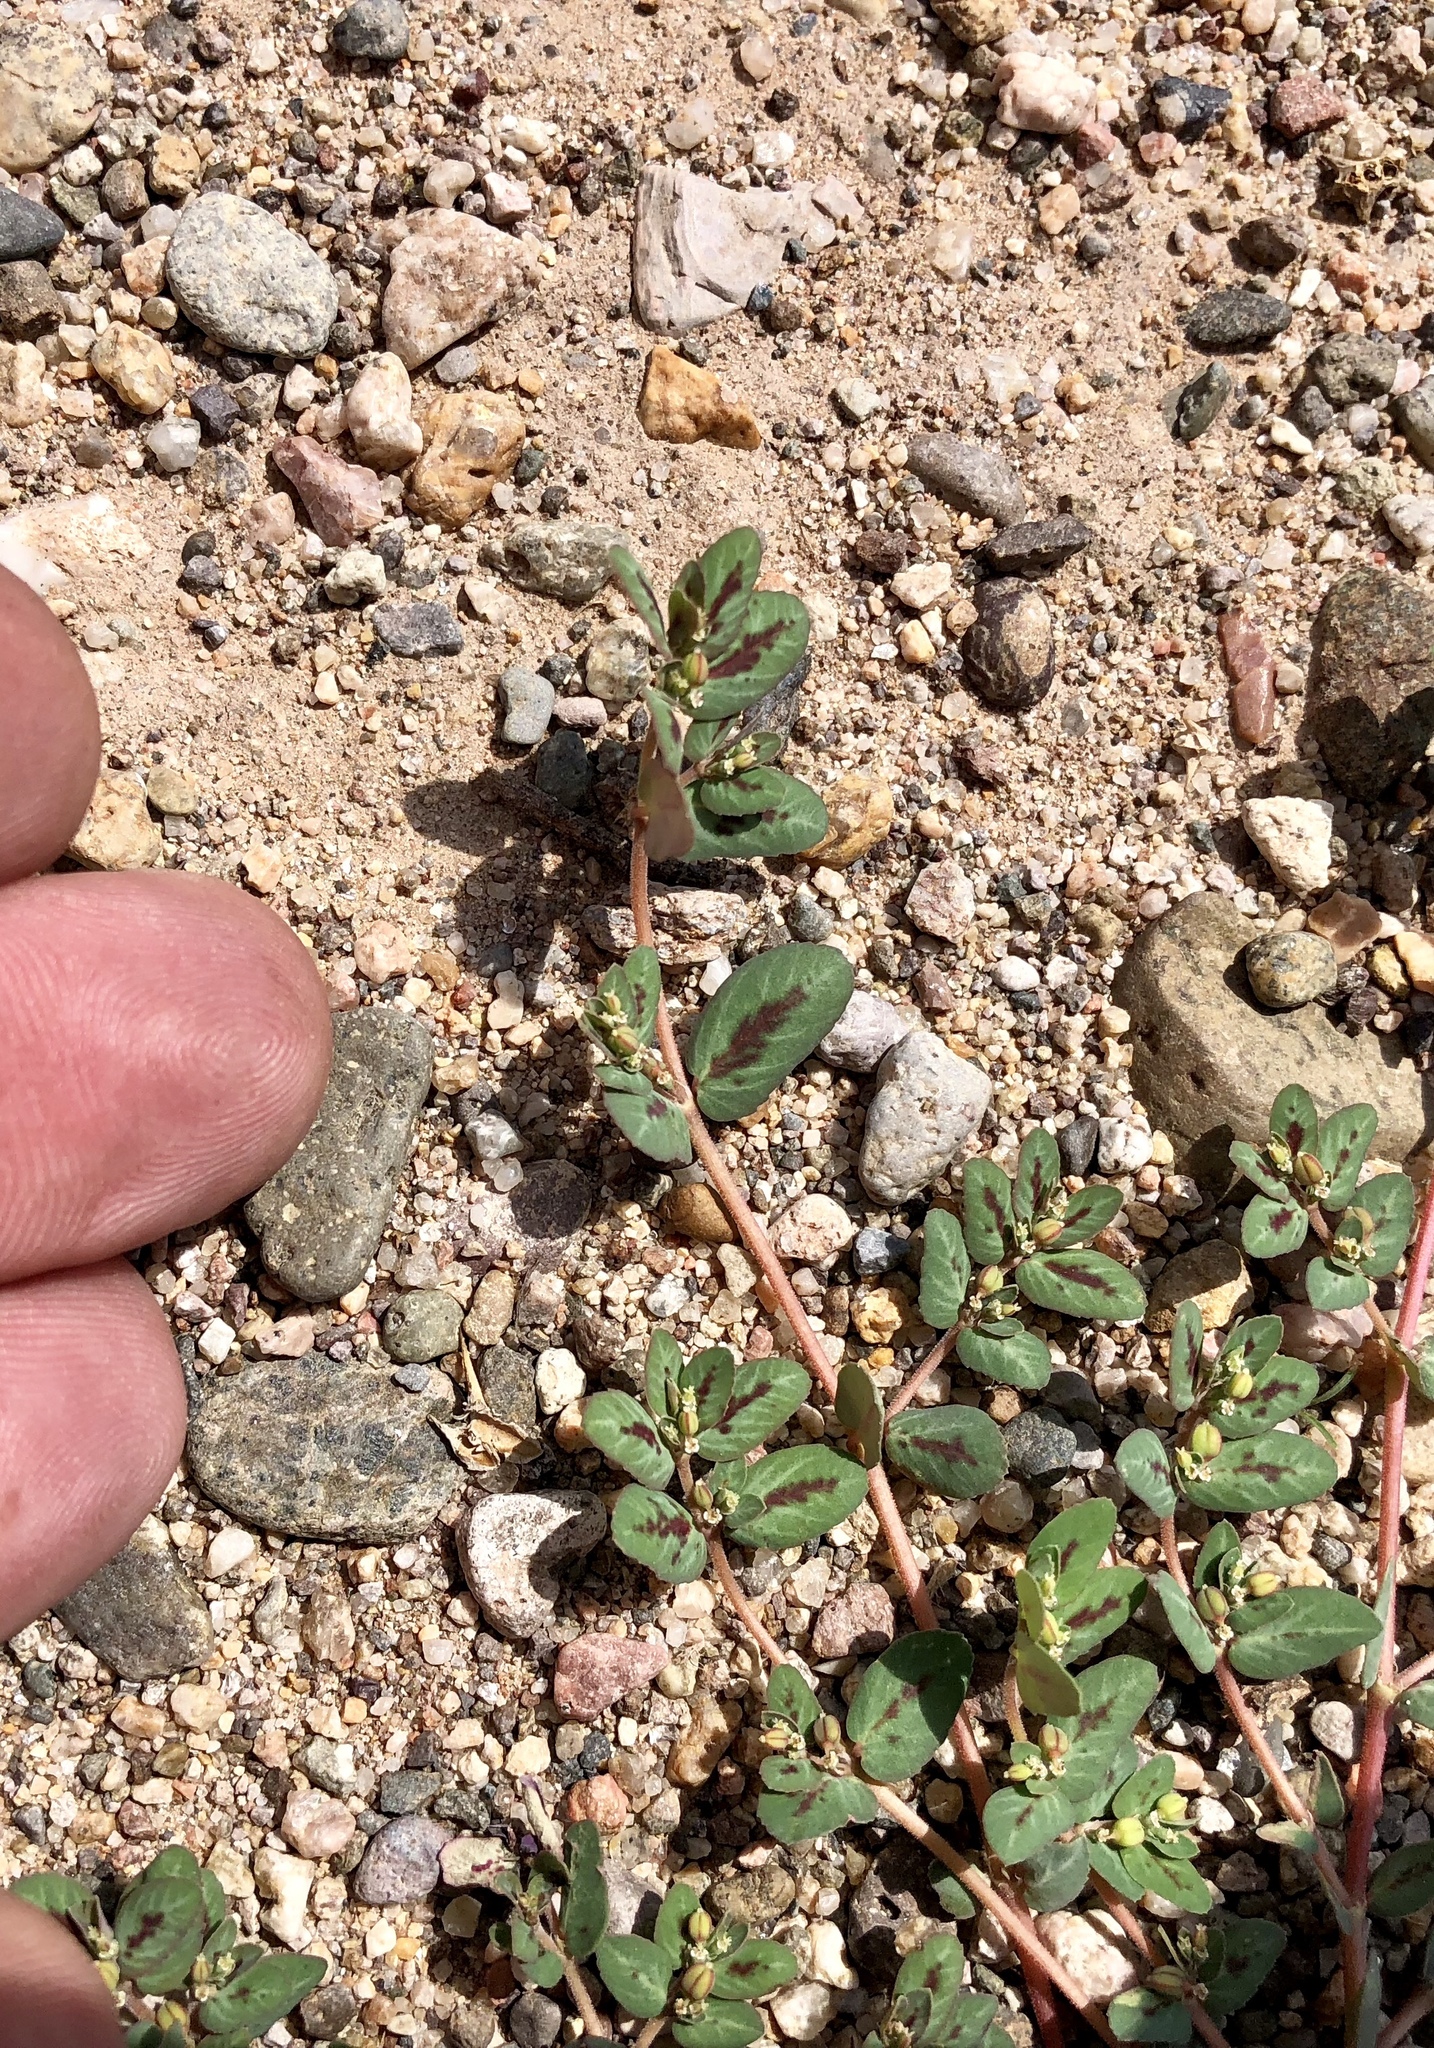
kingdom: Plantae
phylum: Tracheophyta
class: Magnoliopsida
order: Malpighiales
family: Euphorbiaceae
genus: Euphorbia
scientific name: Euphorbia abramsiana
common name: Abram's spurge
